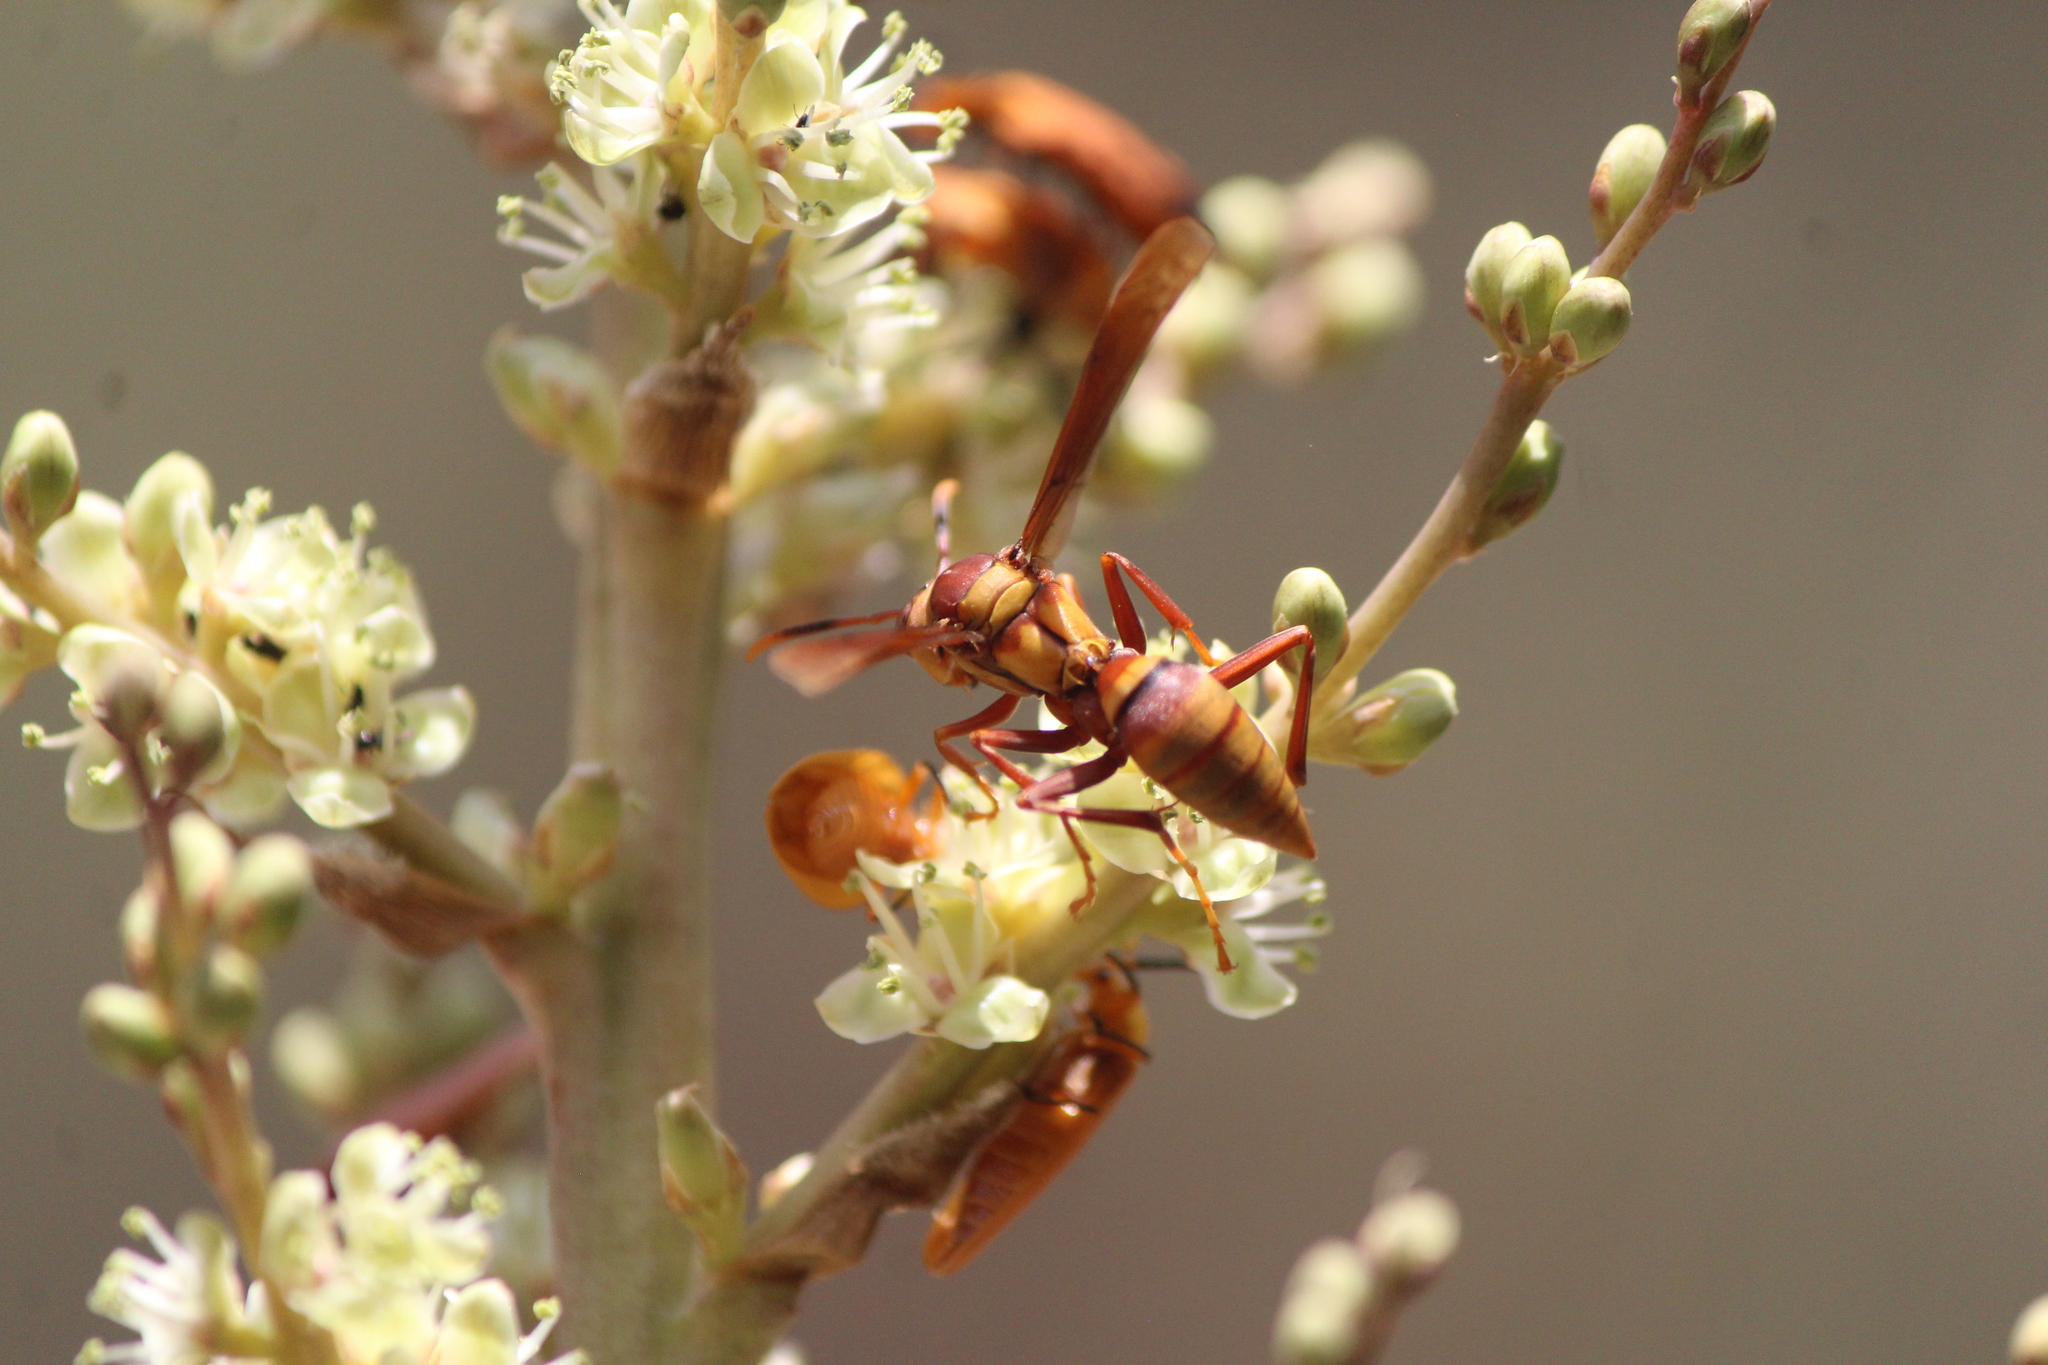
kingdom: Animalia
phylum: Arthropoda
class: Insecta
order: Hymenoptera
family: Eumenidae
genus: Polistes
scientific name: Polistes major
